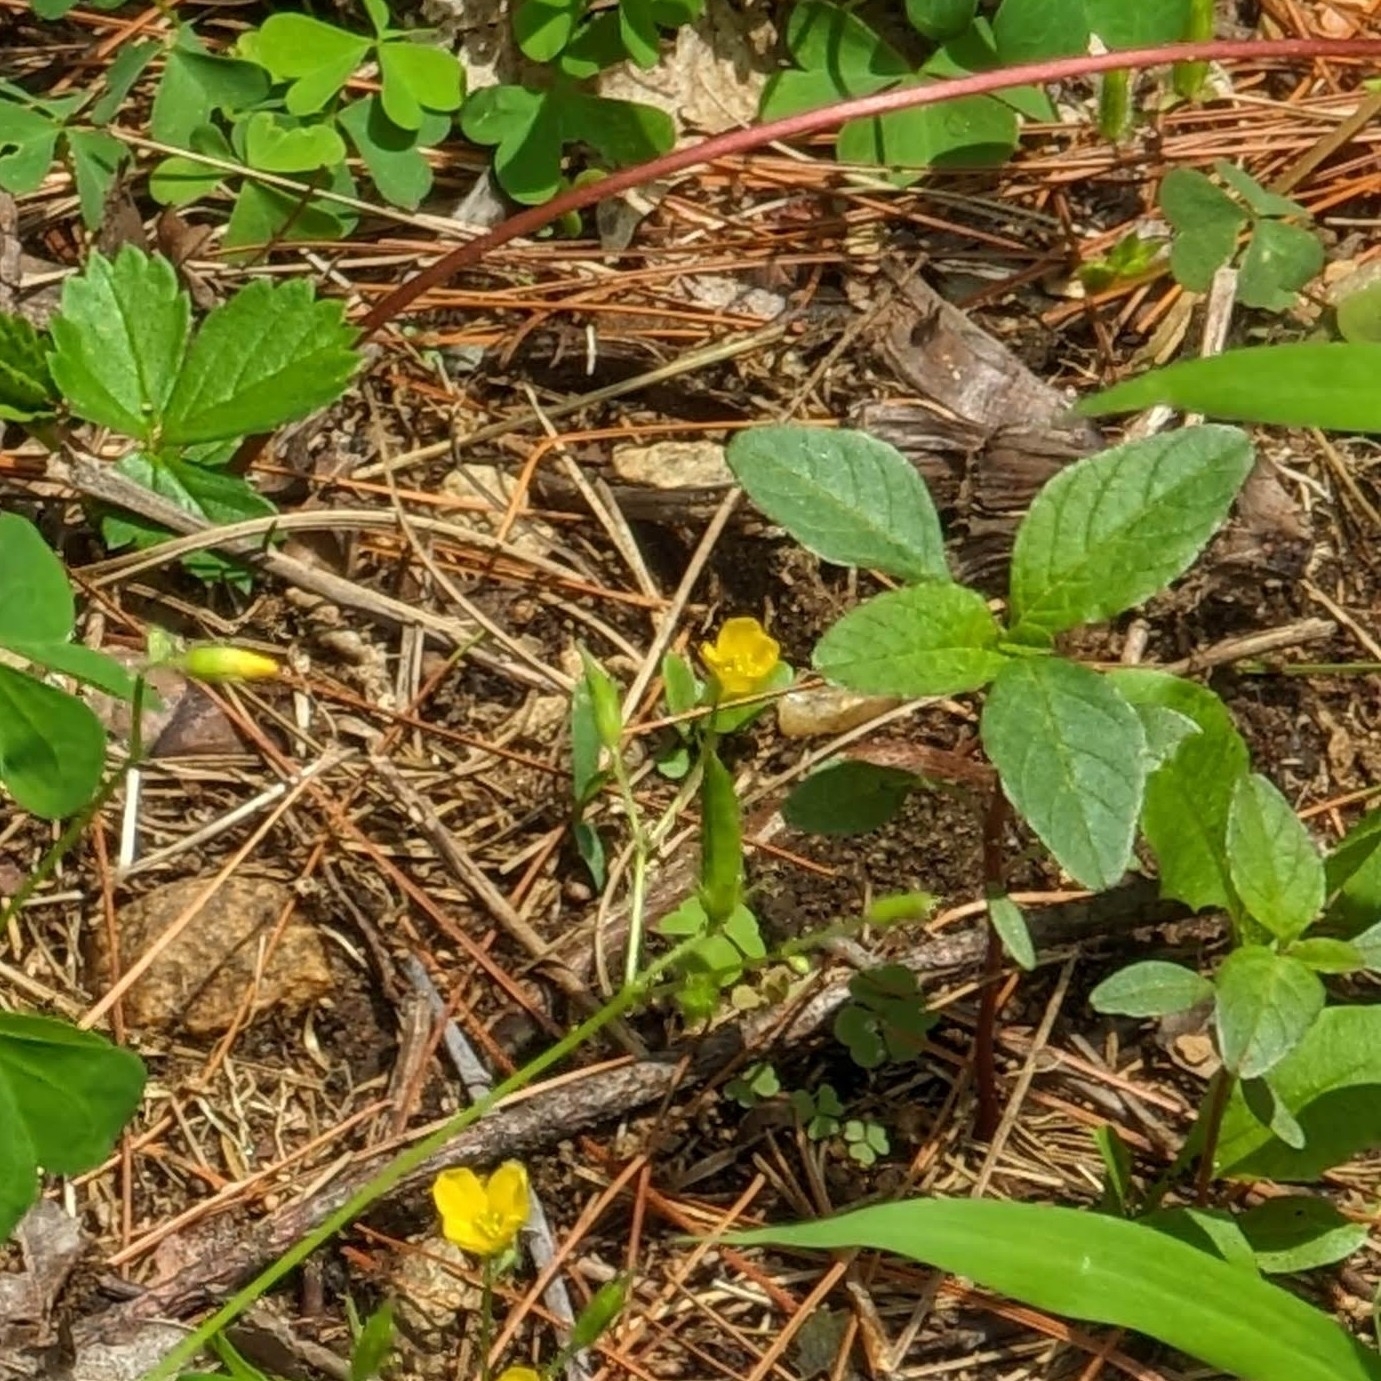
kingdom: Plantae
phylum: Tracheophyta
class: Magnoliopsida
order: Rosales
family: Rhamnaceae
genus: Frangula
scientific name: Frangula alnus
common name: Alder buckthorn
